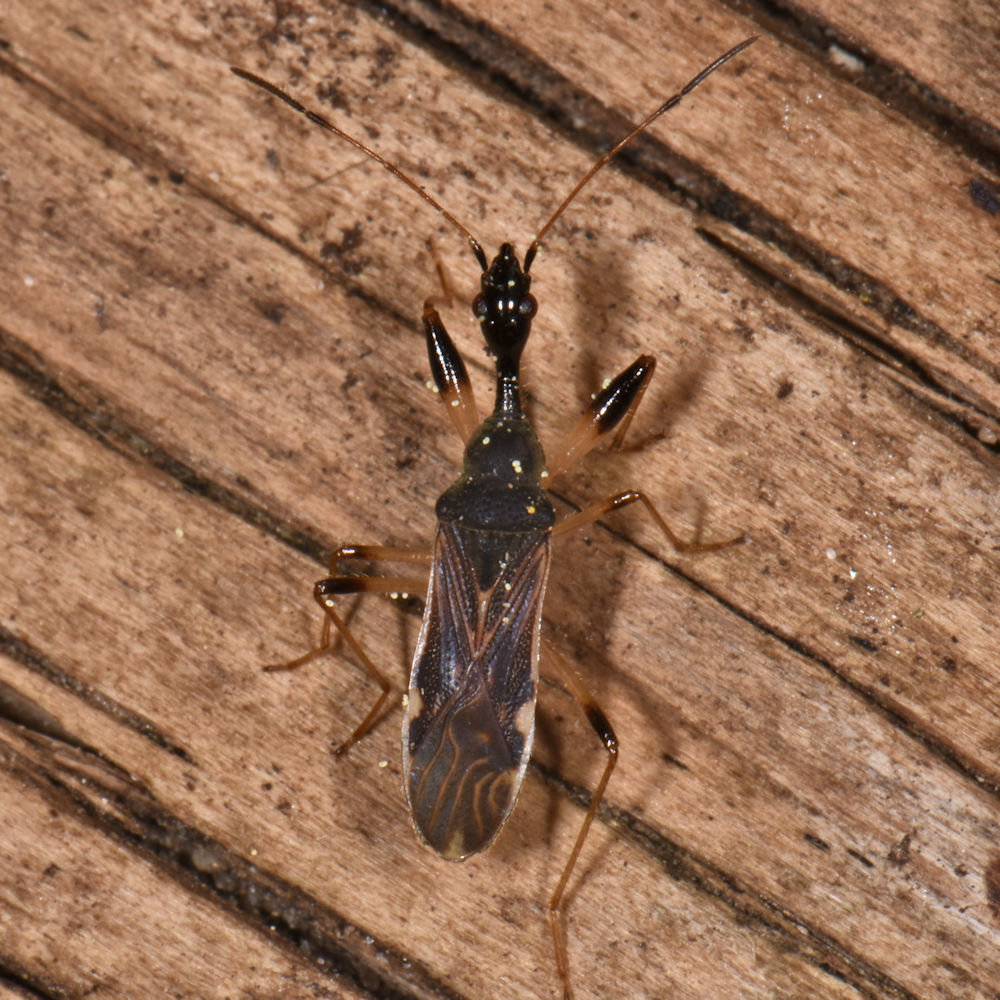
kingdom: Animalia
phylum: Arthropoda
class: Insecta
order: Hemiptera
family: Rhyparochromidae
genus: Myodocha
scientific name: Myodocha serripes
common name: Long-necked seed bug
